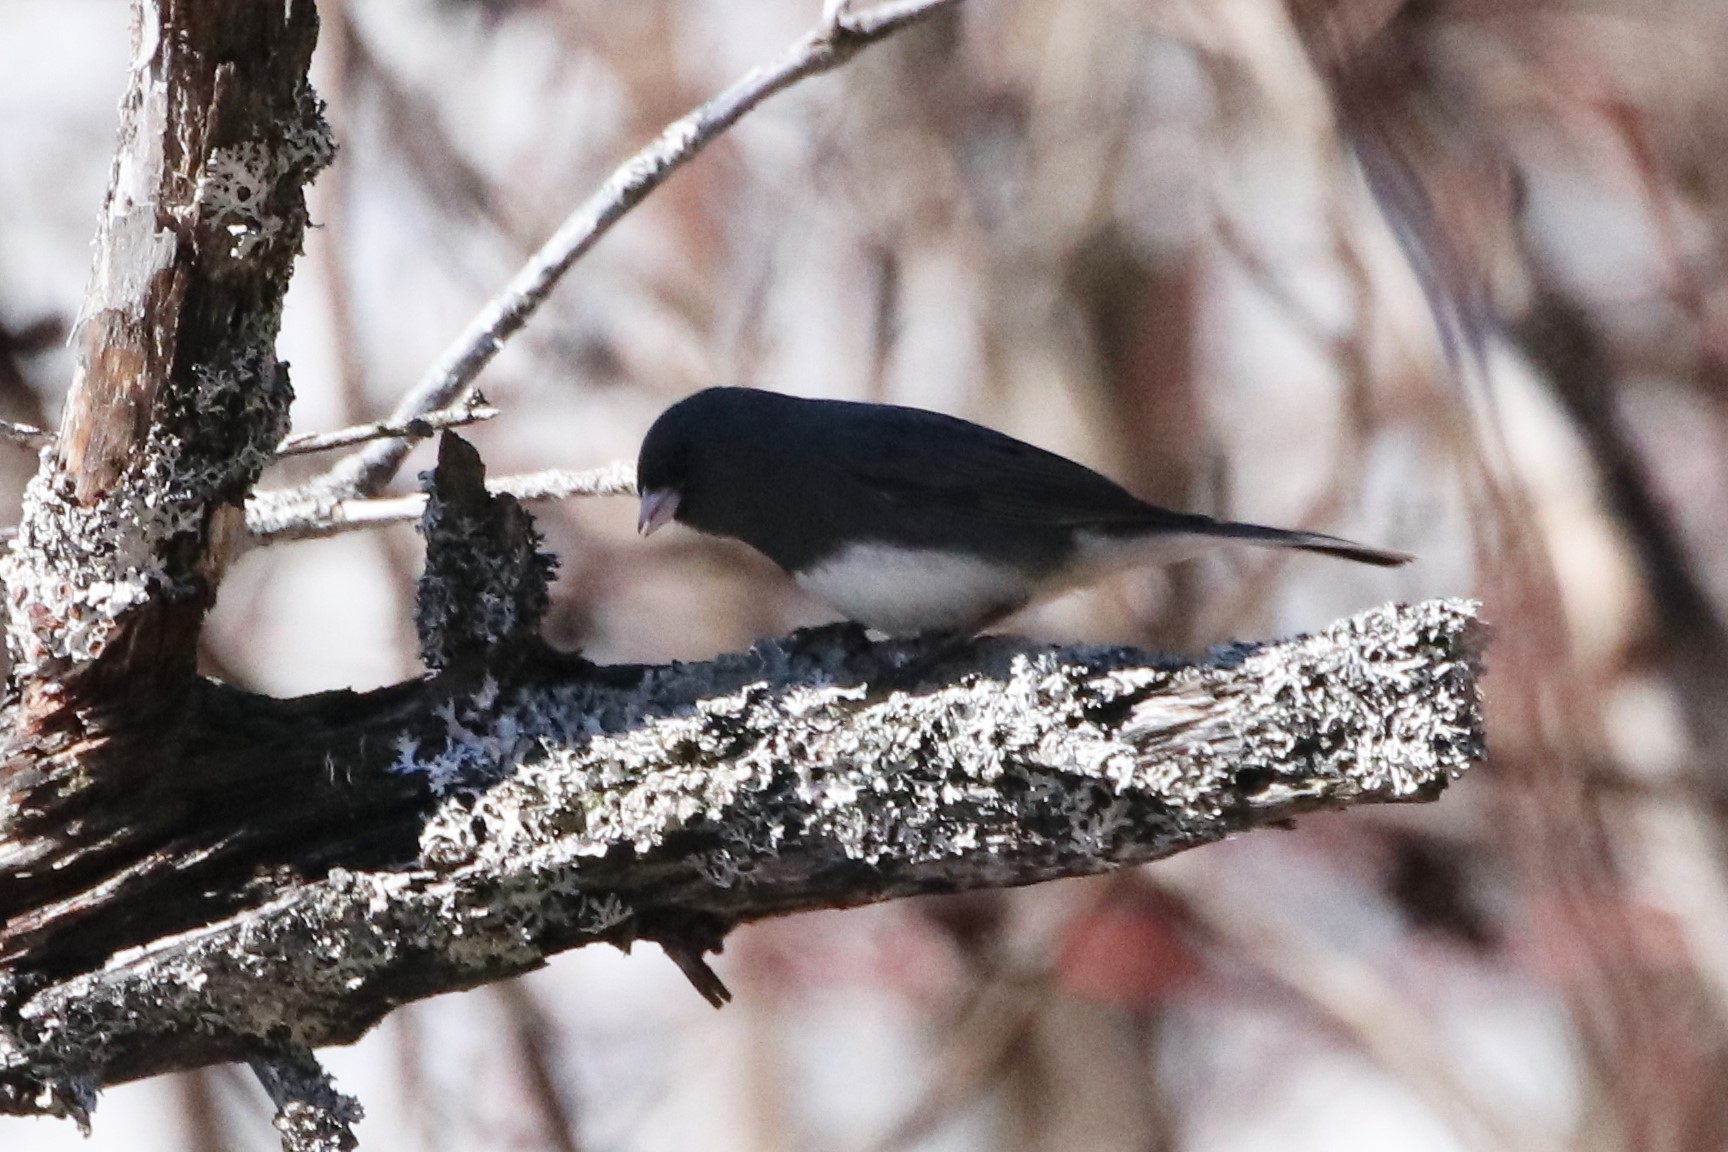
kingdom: Animalia
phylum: Chordata
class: Aves
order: Passeriformes
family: Passerellidae
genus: Junco
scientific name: Junco hyemalis
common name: Dark-eyed junco
